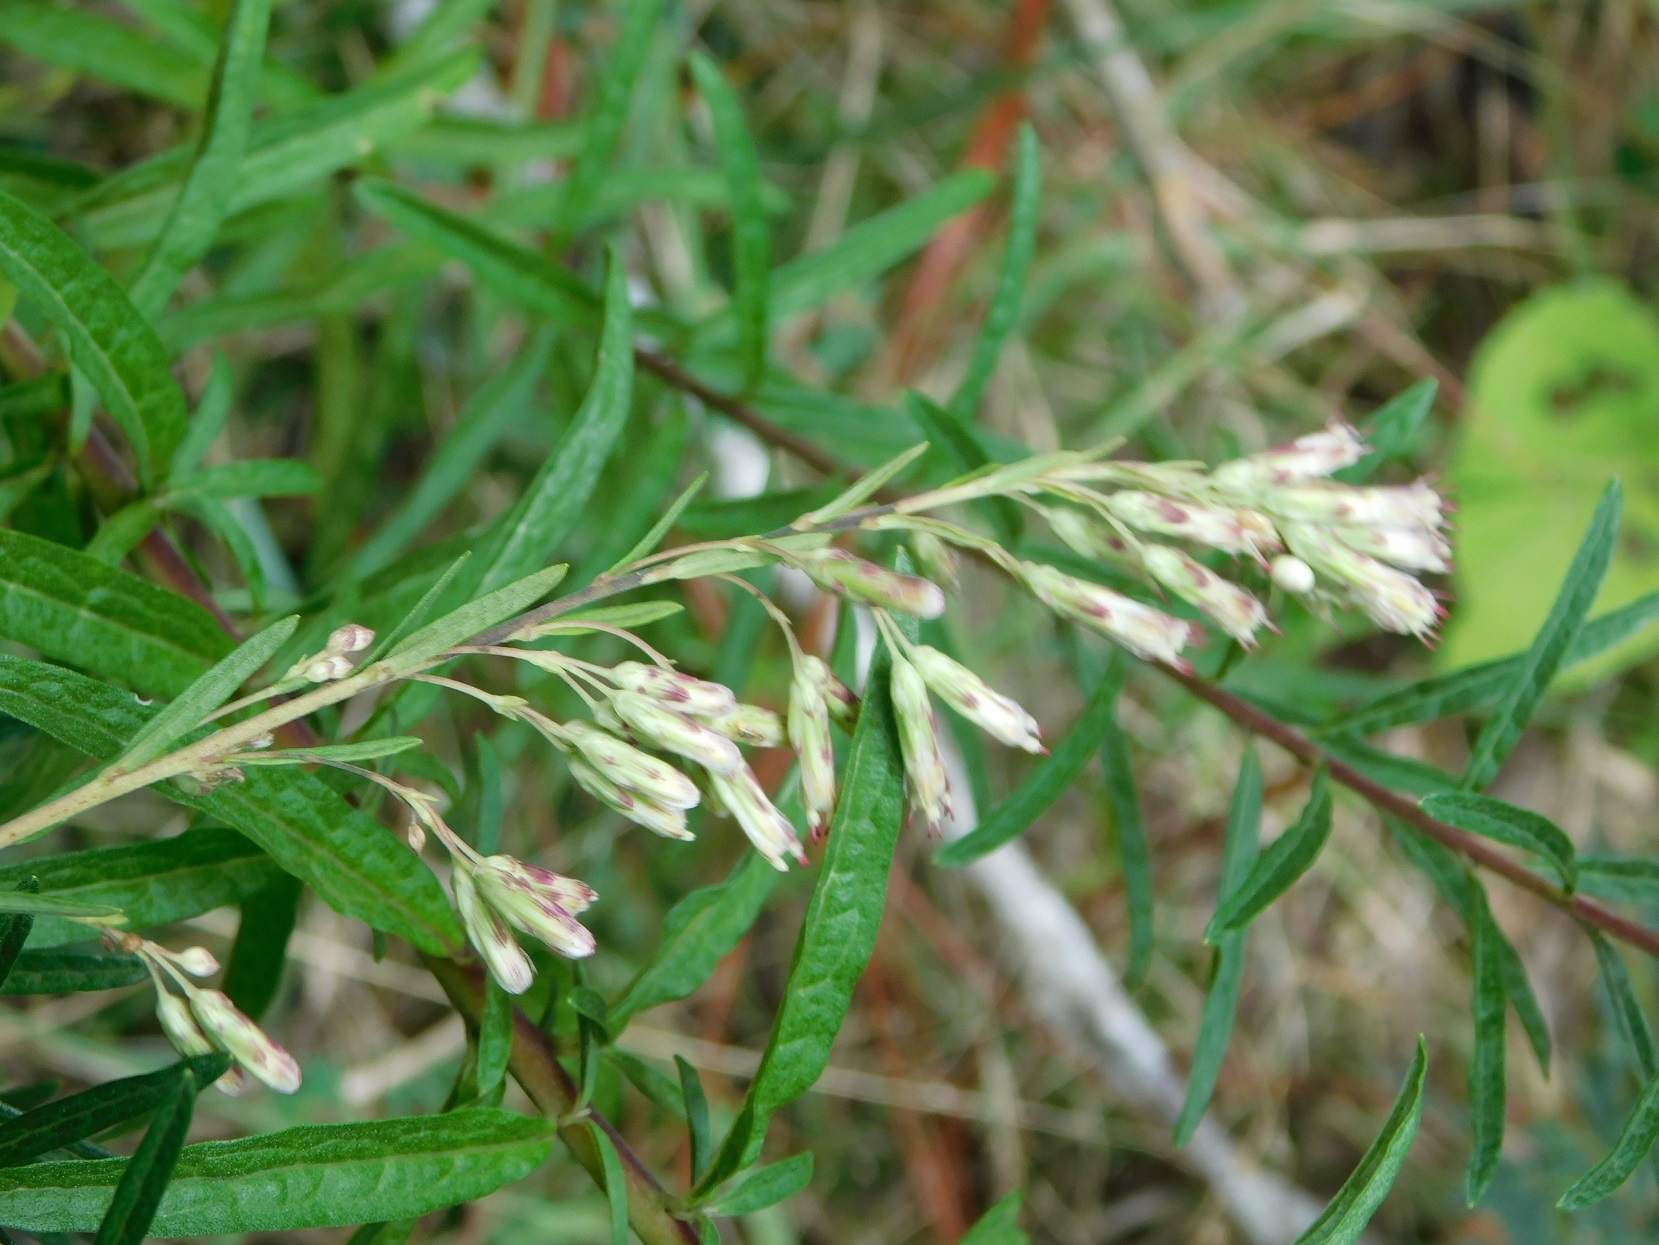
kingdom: Plantae
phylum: Tracheophyta
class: Magnoliopsida
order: Asterales
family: Asteraceae
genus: Brickellia
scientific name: Brickellia scoparia
